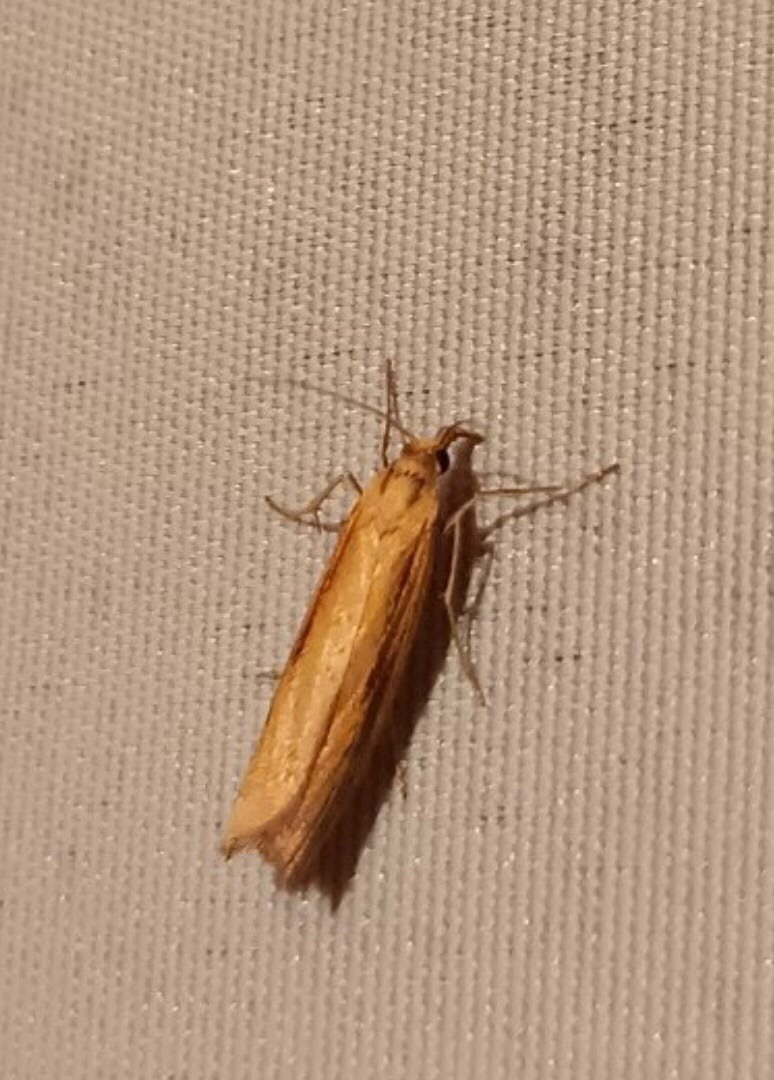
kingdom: Animalia
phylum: Arthropoda
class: Insecta
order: Lepidoptera
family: Crambidae
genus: Agriphila
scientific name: Agriphila tristellus
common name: Common grass-veneer
